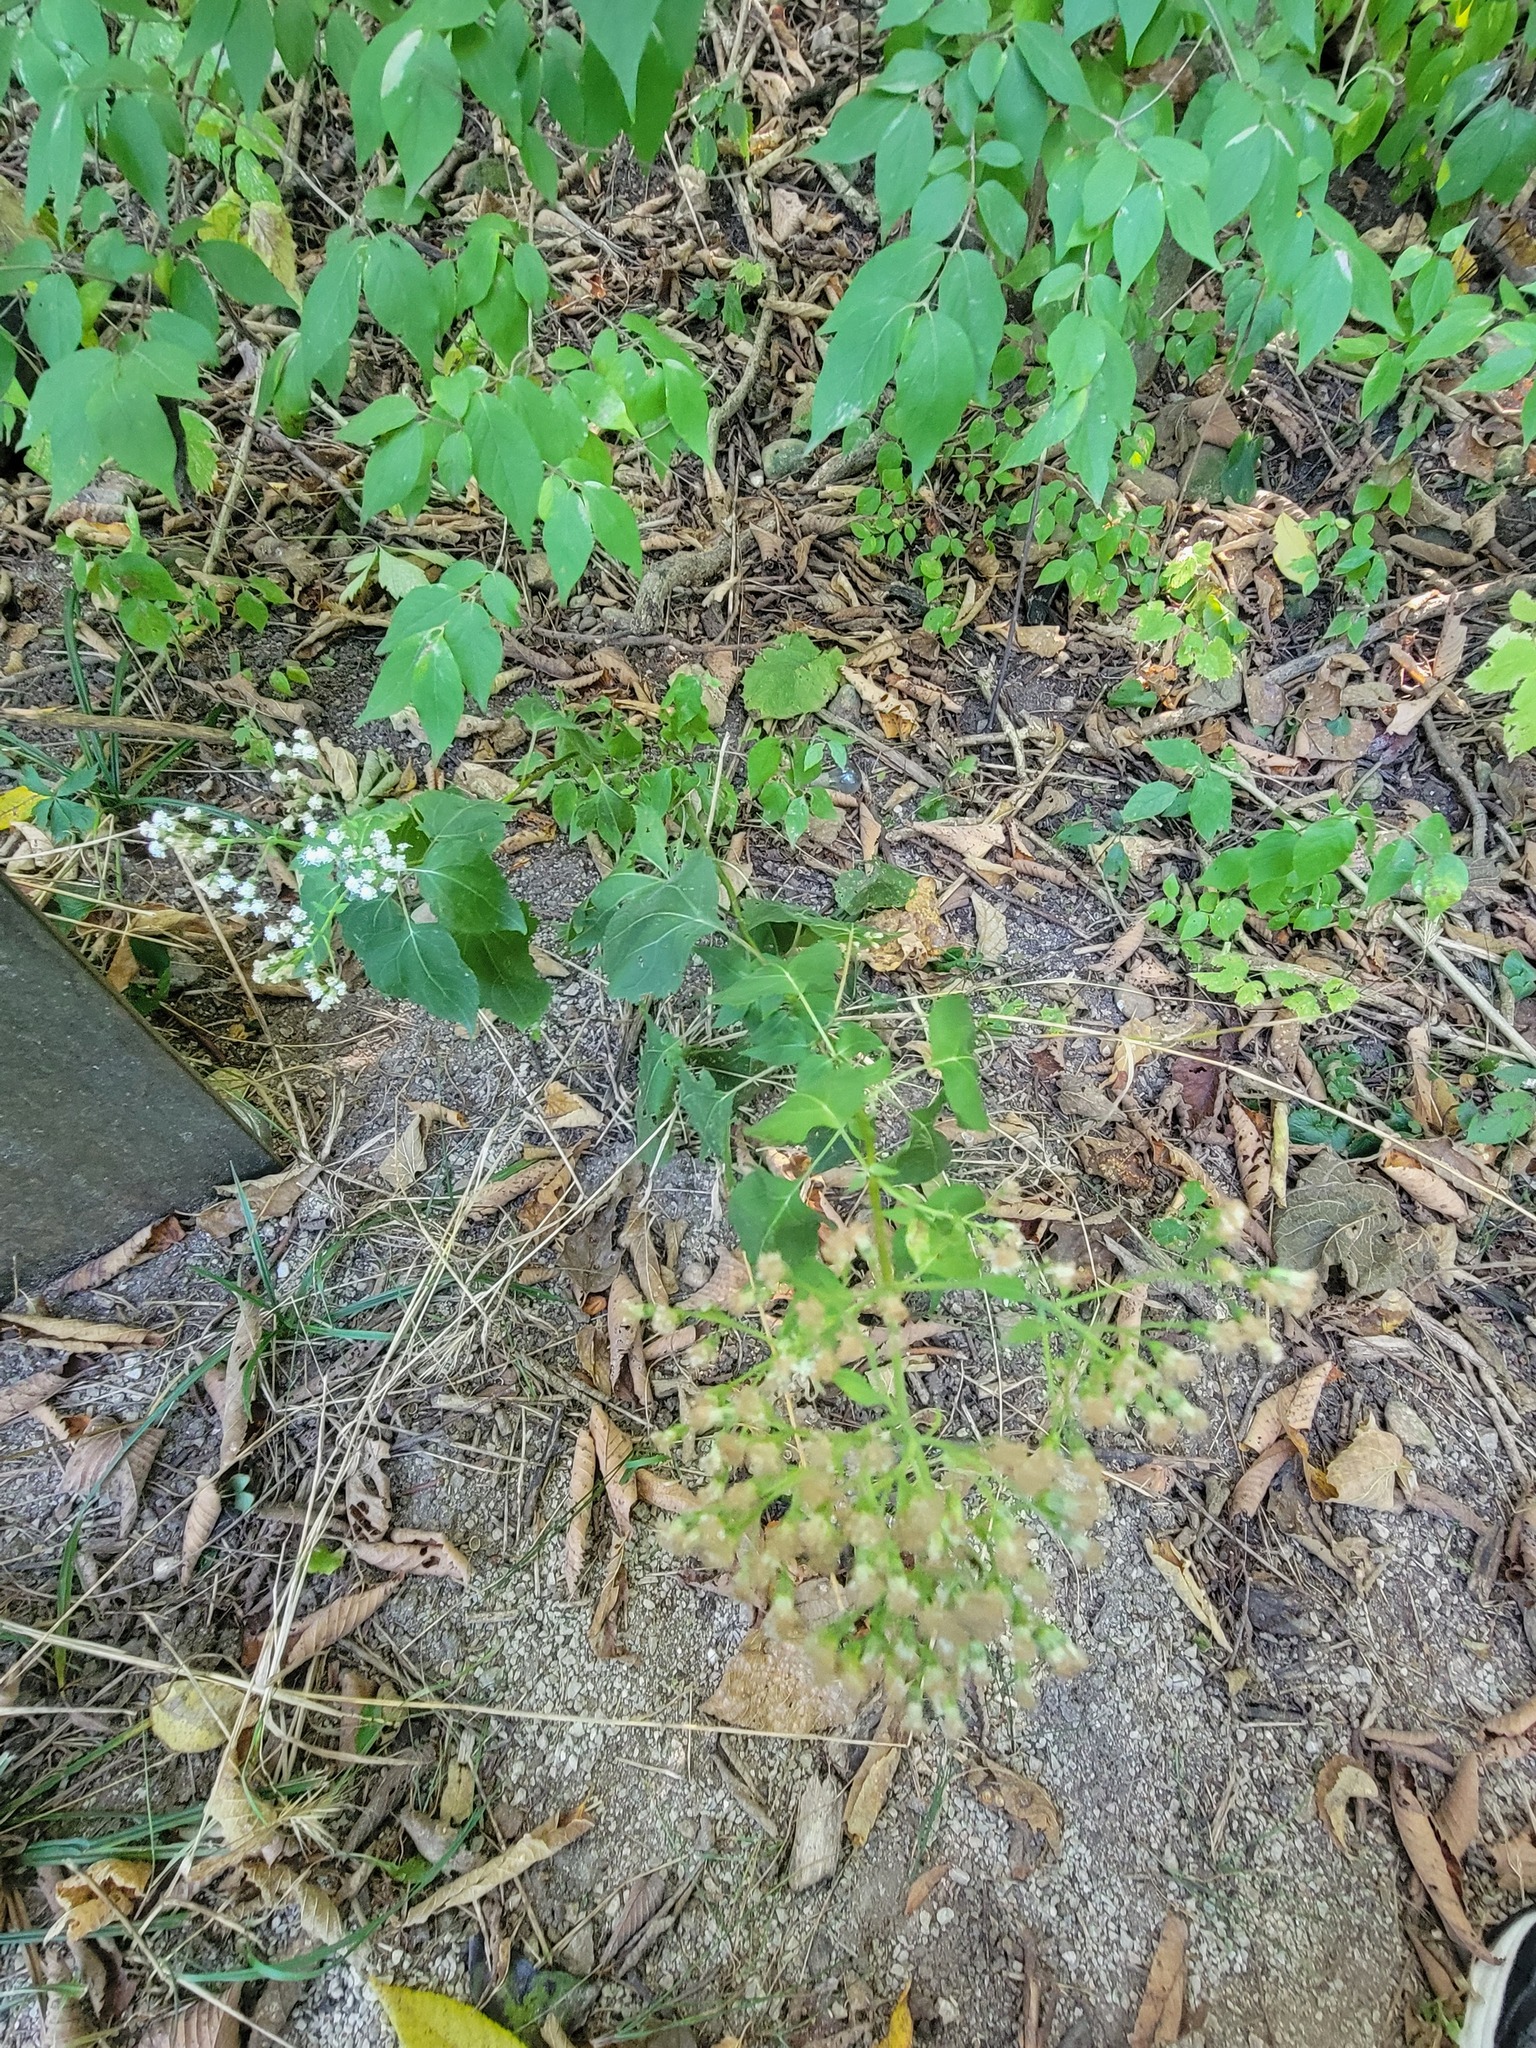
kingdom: Plantae
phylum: Tracheophyta
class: Magnoliopsida
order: Asterales
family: Asteraceae
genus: Ageratina
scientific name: Ageratina altissima
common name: White snakeroot
